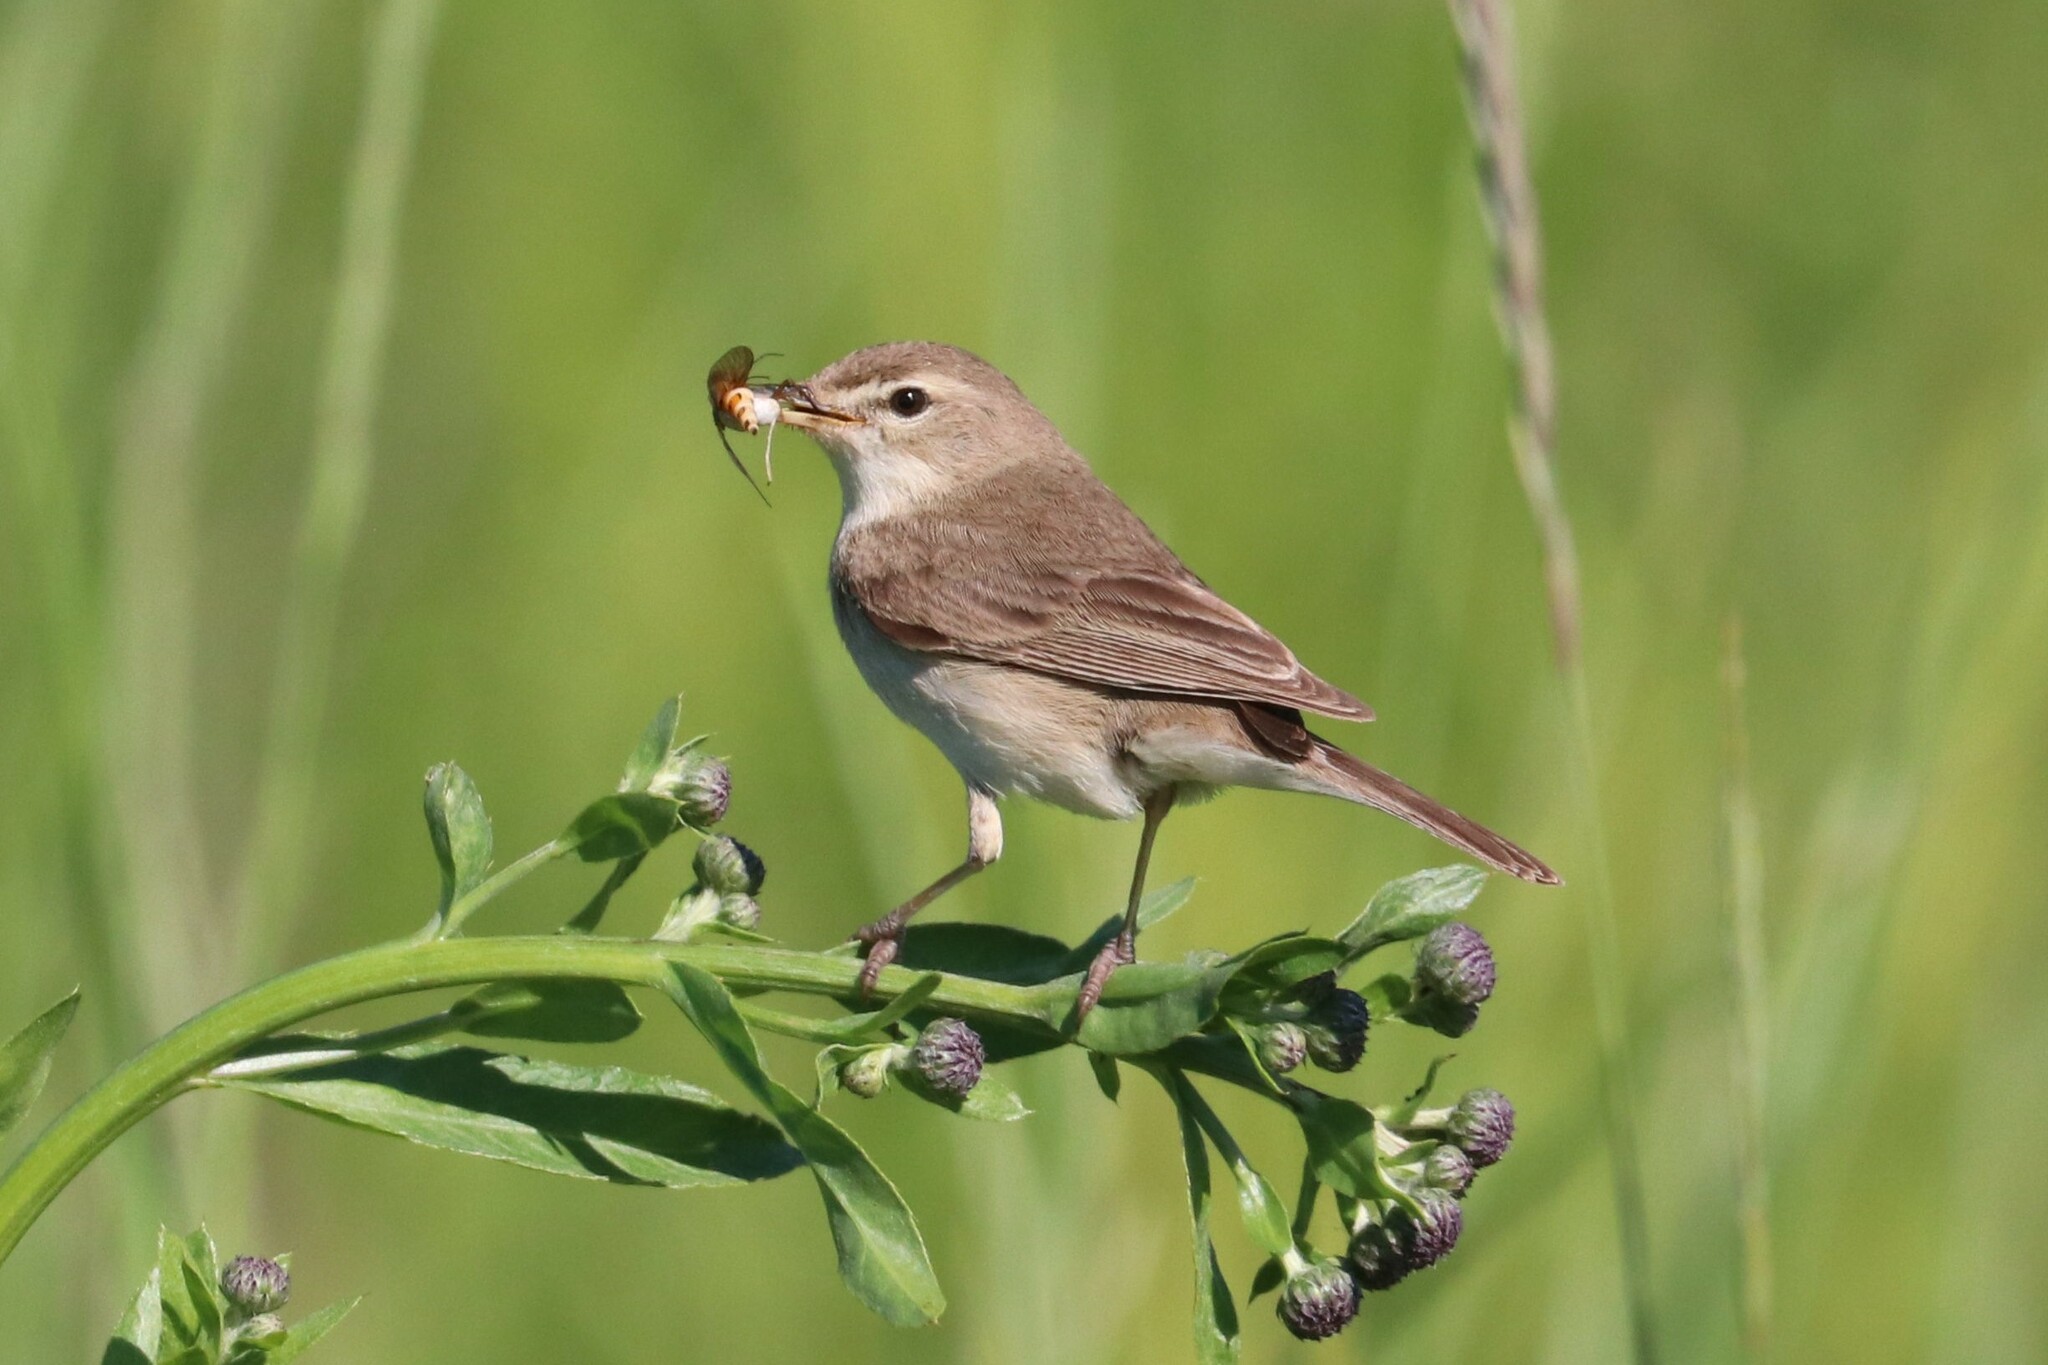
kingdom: Animalia
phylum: Chordata
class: Aves
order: Passeriformes
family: Acrocephalidae
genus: Iduna
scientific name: Iduna caligata
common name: Booted warbler
